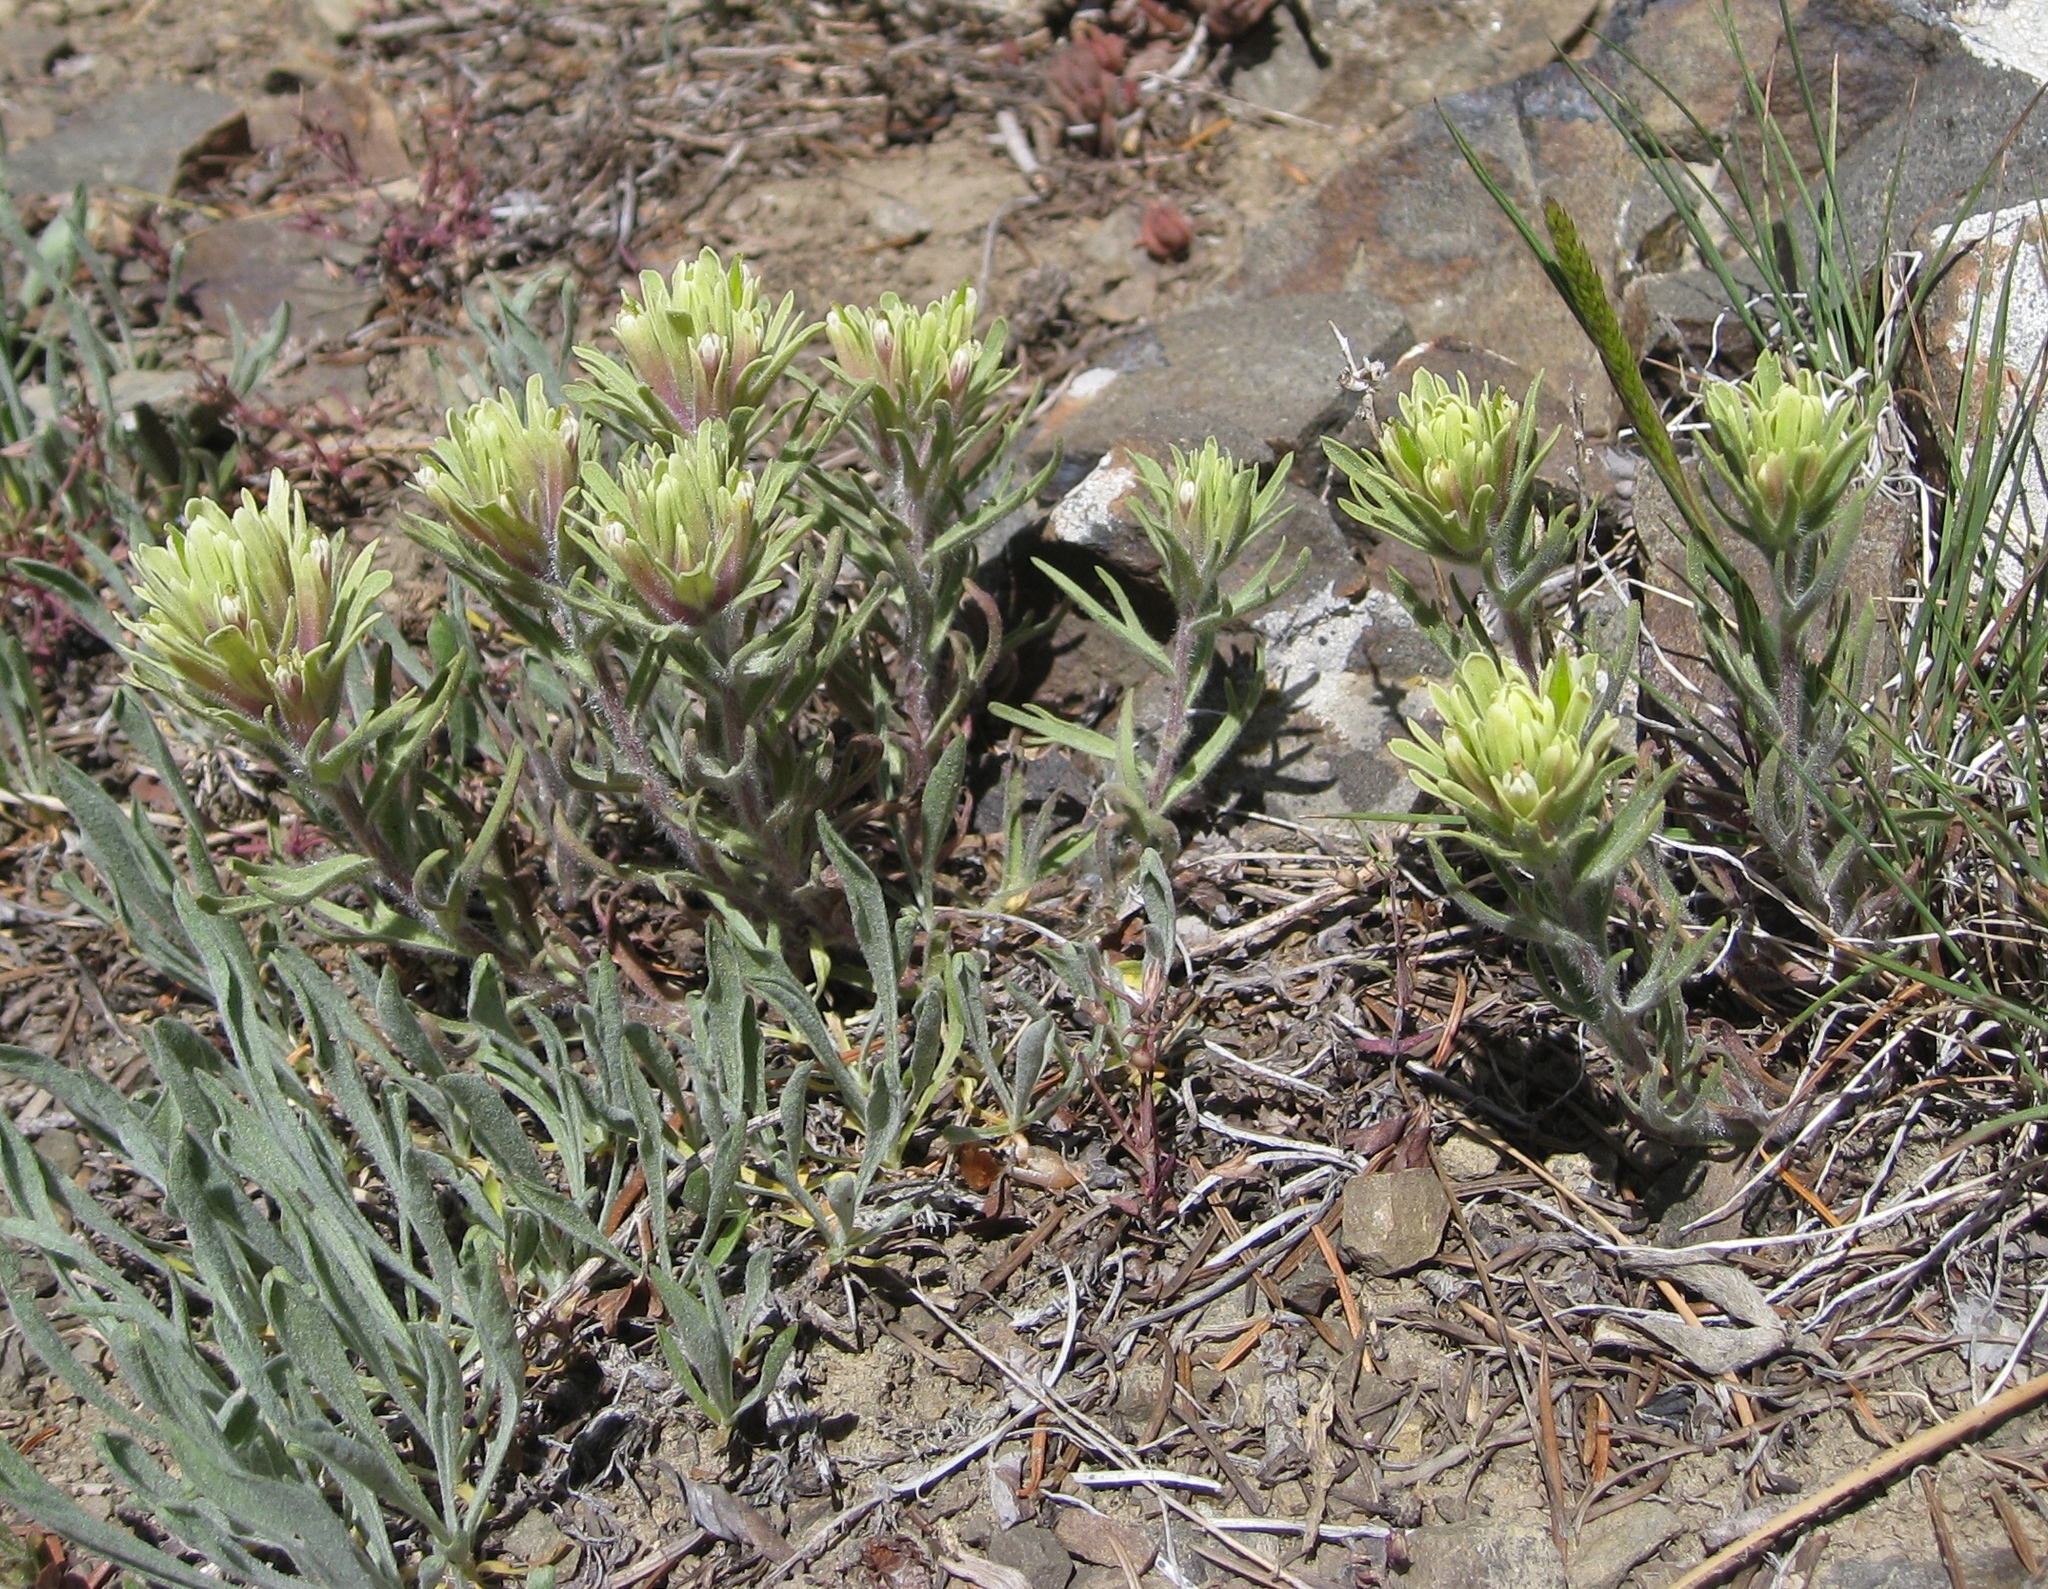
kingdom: Plantae
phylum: Tracheophyta
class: Magnoliopsida
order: Lamiales
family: Orobanchaceae
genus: Castilleja
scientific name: Castilleja thompsonii
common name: Thompson's paintbrush
